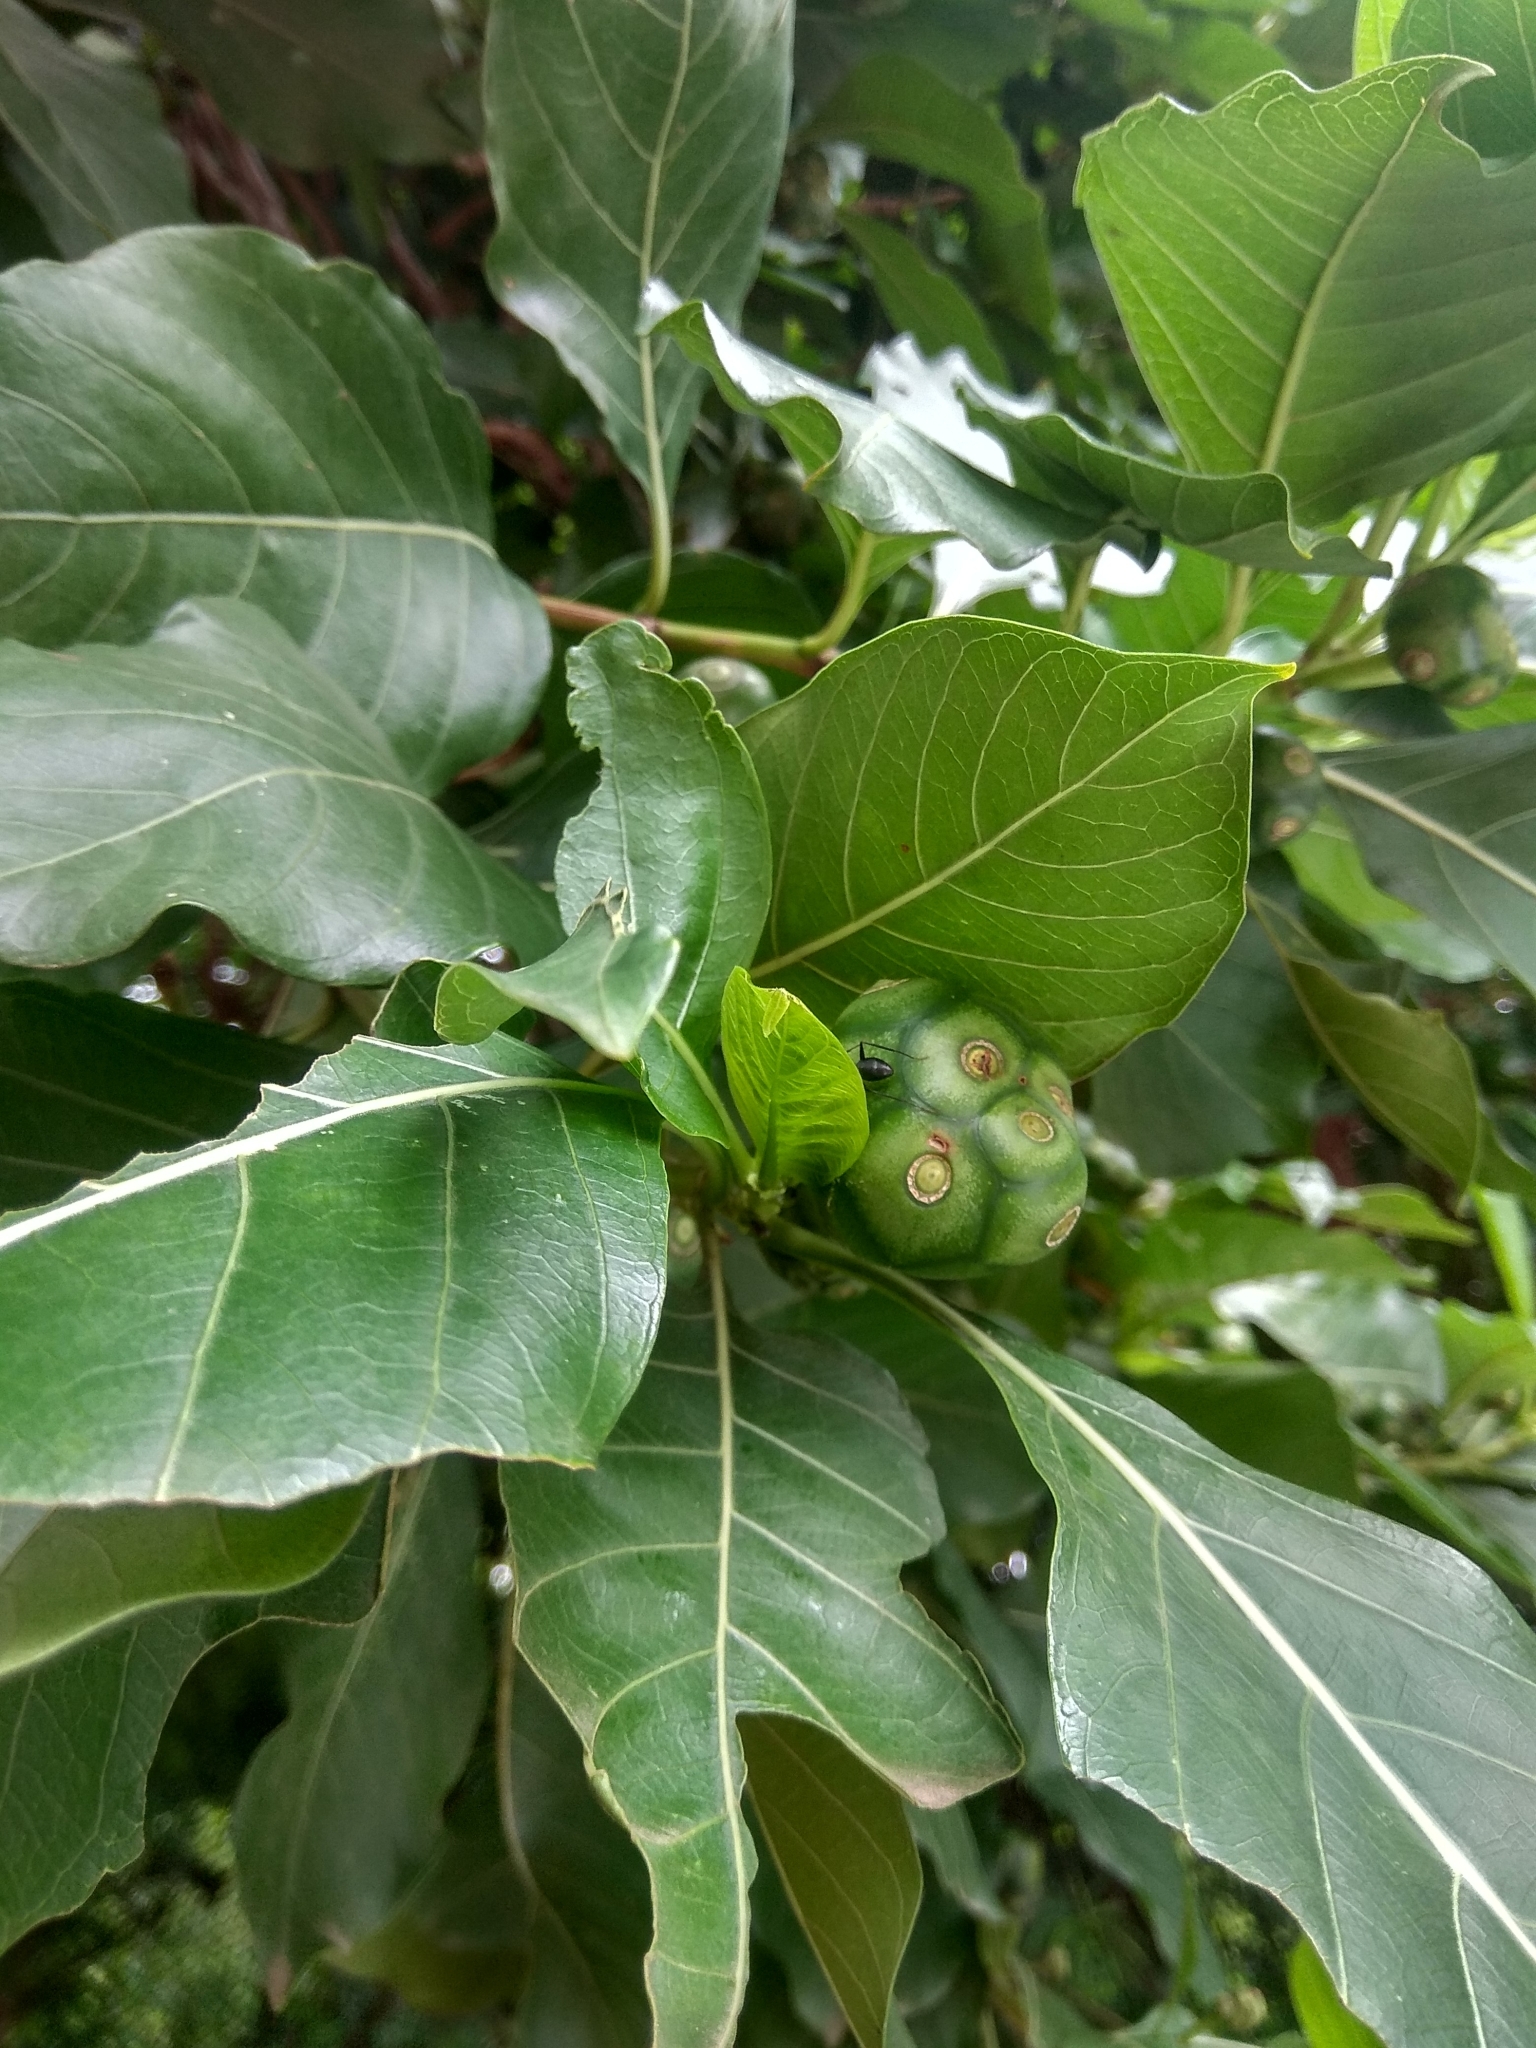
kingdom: Plantae
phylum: Tracheophyta
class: Magnoliopsida
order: Gentianales
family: Rubiaceae
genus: Morinda
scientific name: Morinda citrifolia
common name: Indian-mulberry
